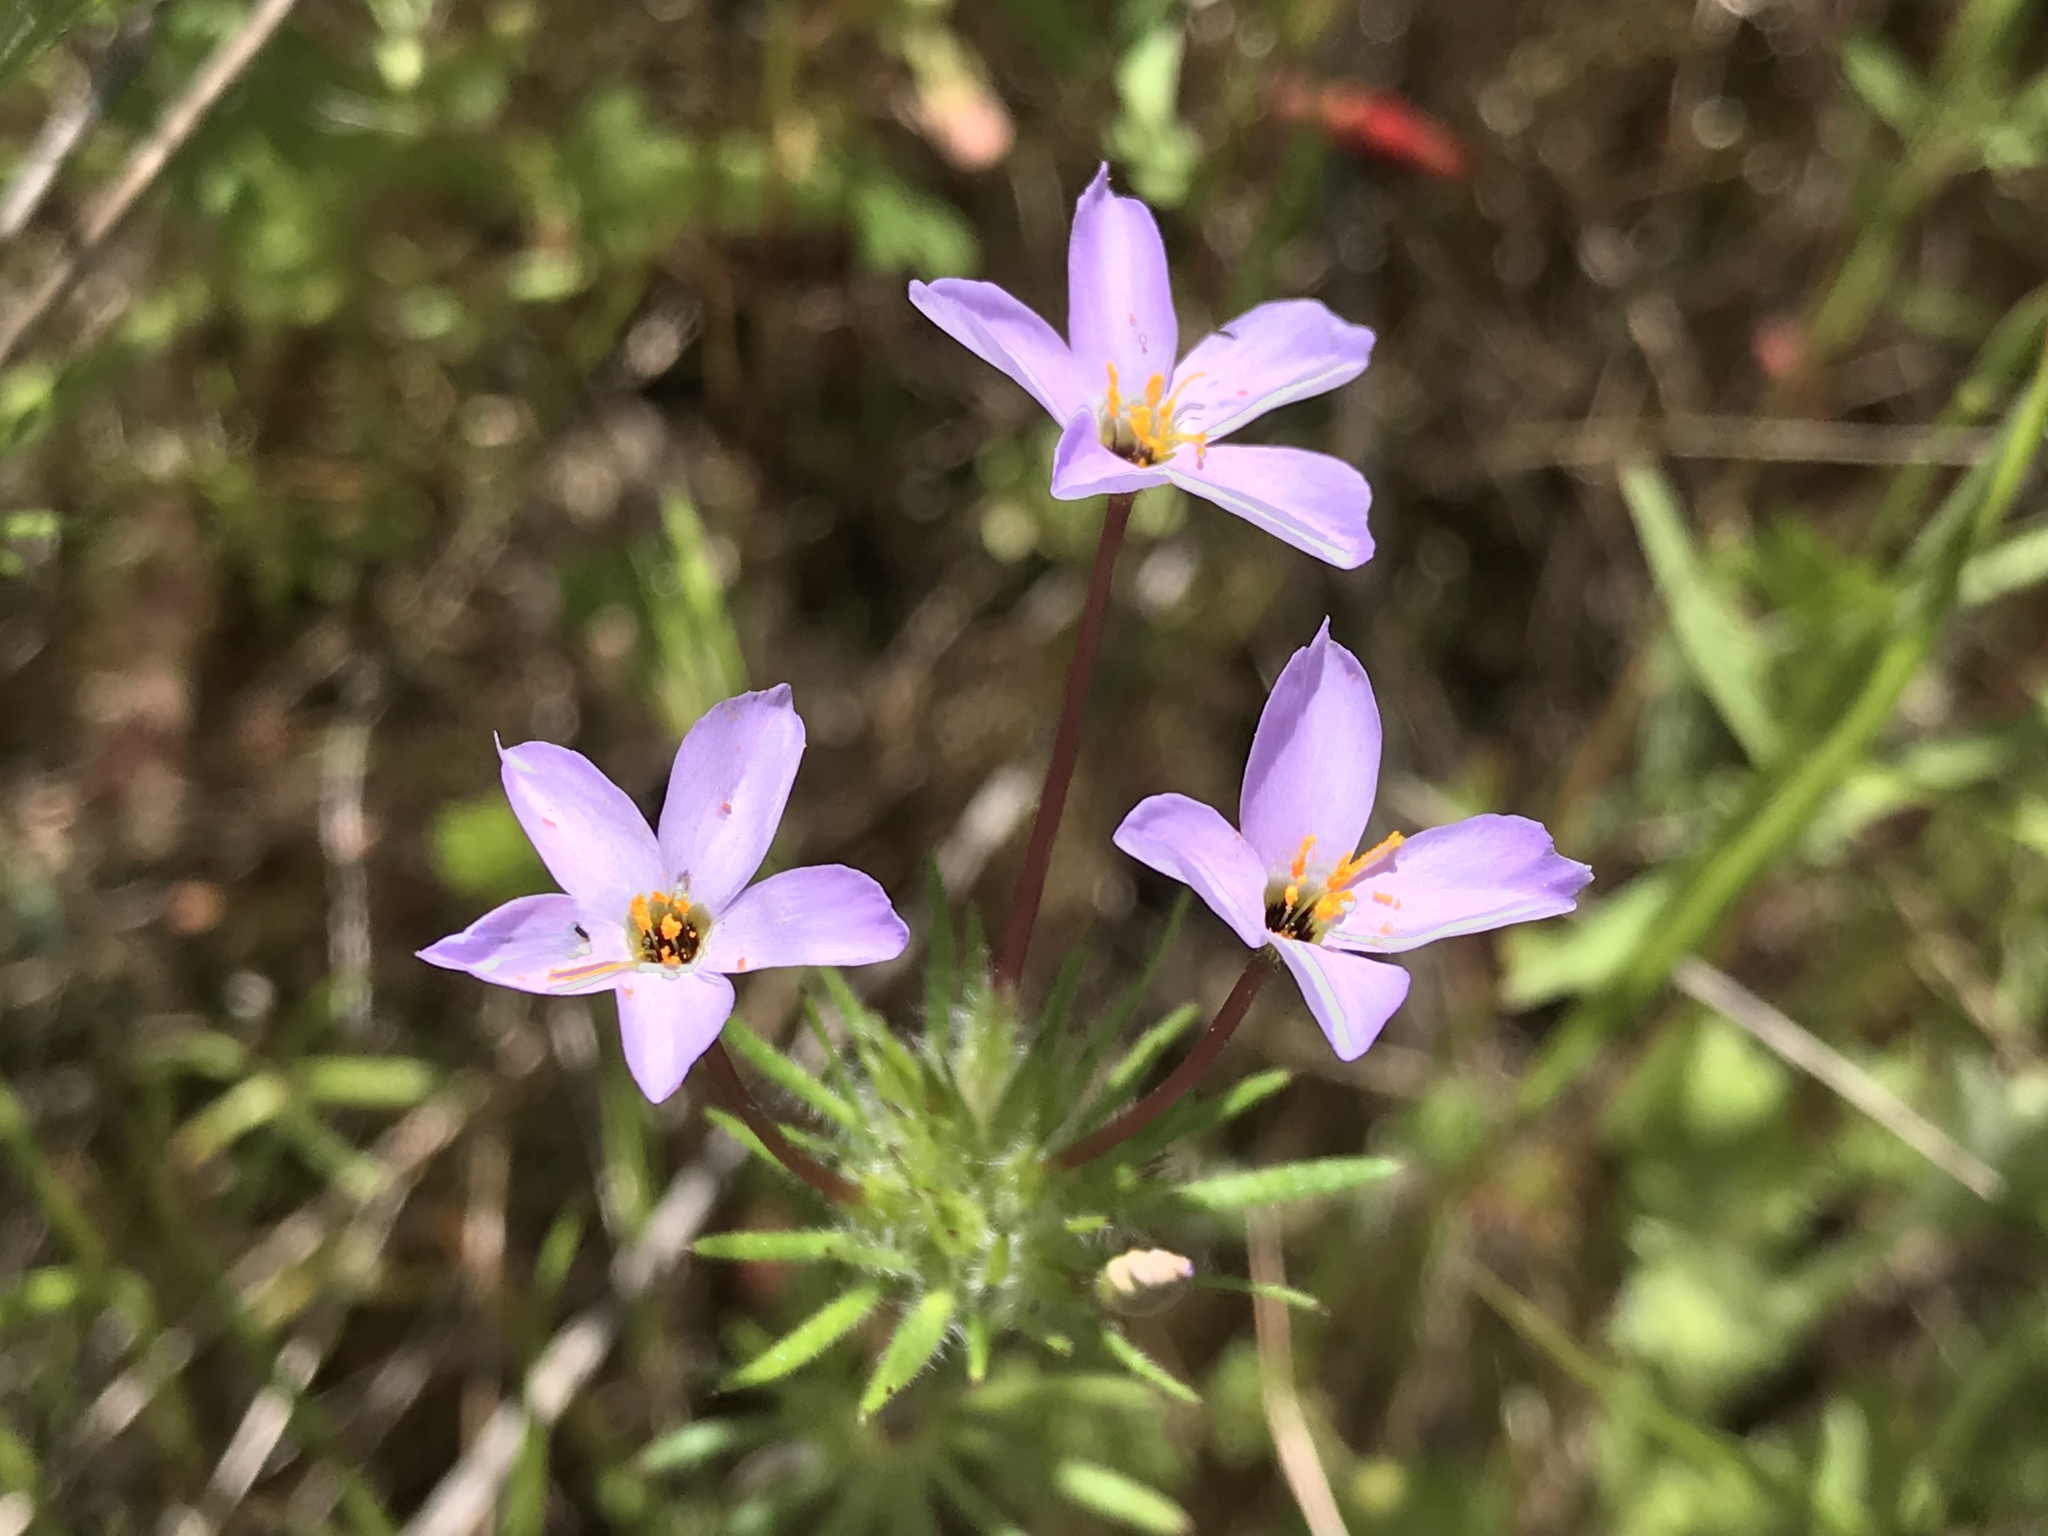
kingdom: Plantae
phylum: Tracheophyta
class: Magnoliopsida
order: Ericales
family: Polemoniaceae
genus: Leptosiphon
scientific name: Leptosiphon androsaceus
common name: False babystars
